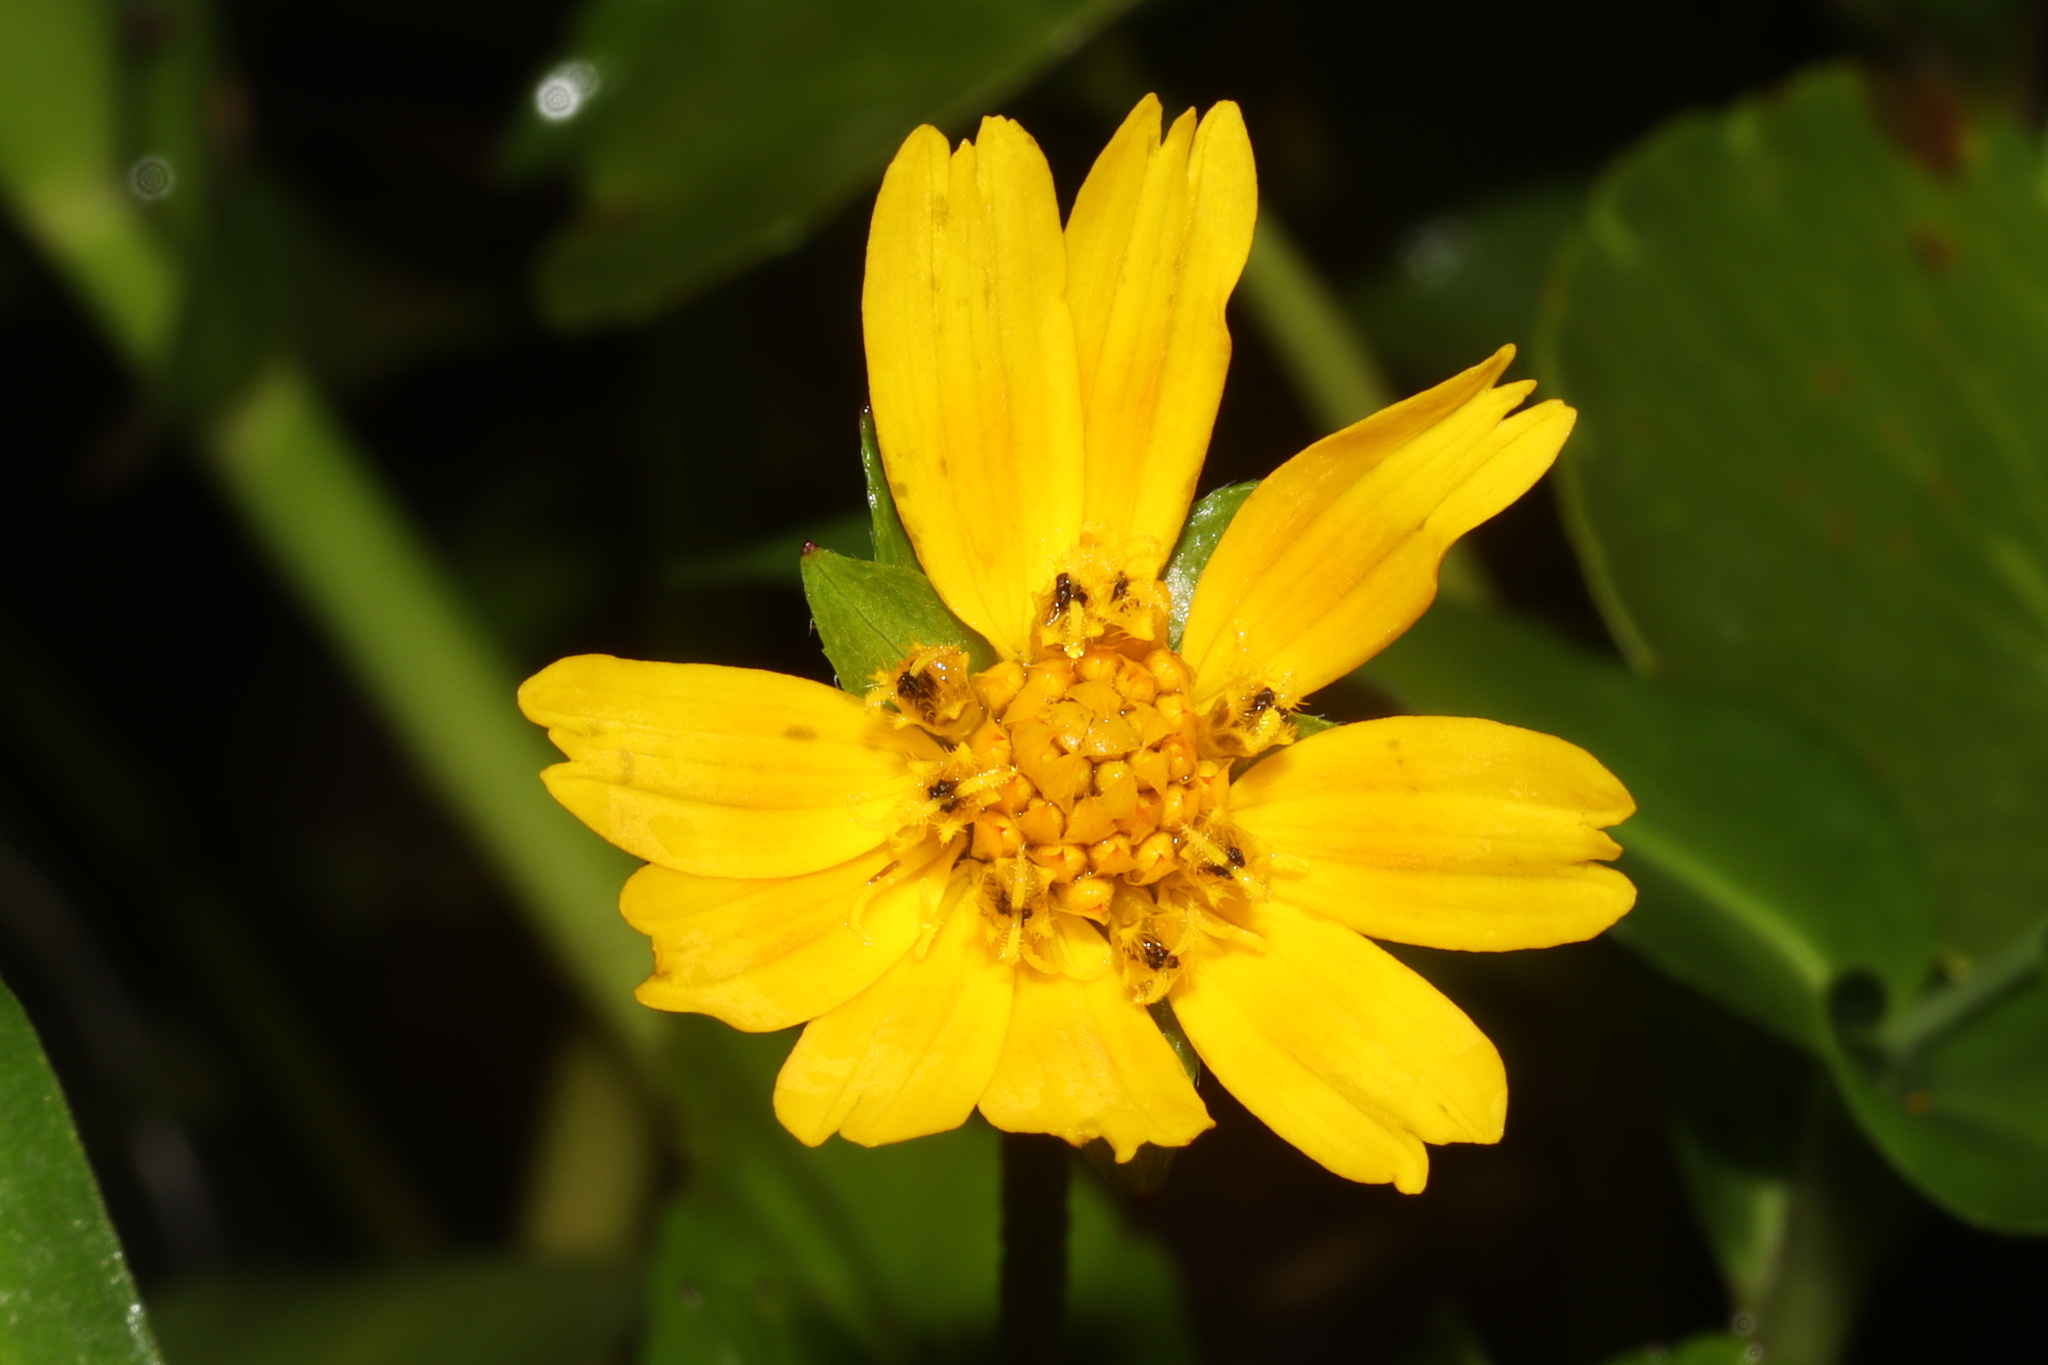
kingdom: Plantae
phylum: Tracheophyta
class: Magnoliopsida
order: Asterales
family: Asteraceae
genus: Sphagneticola
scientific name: Sphagneticola trilobata
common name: Bay biscayne creeping-oxeye
